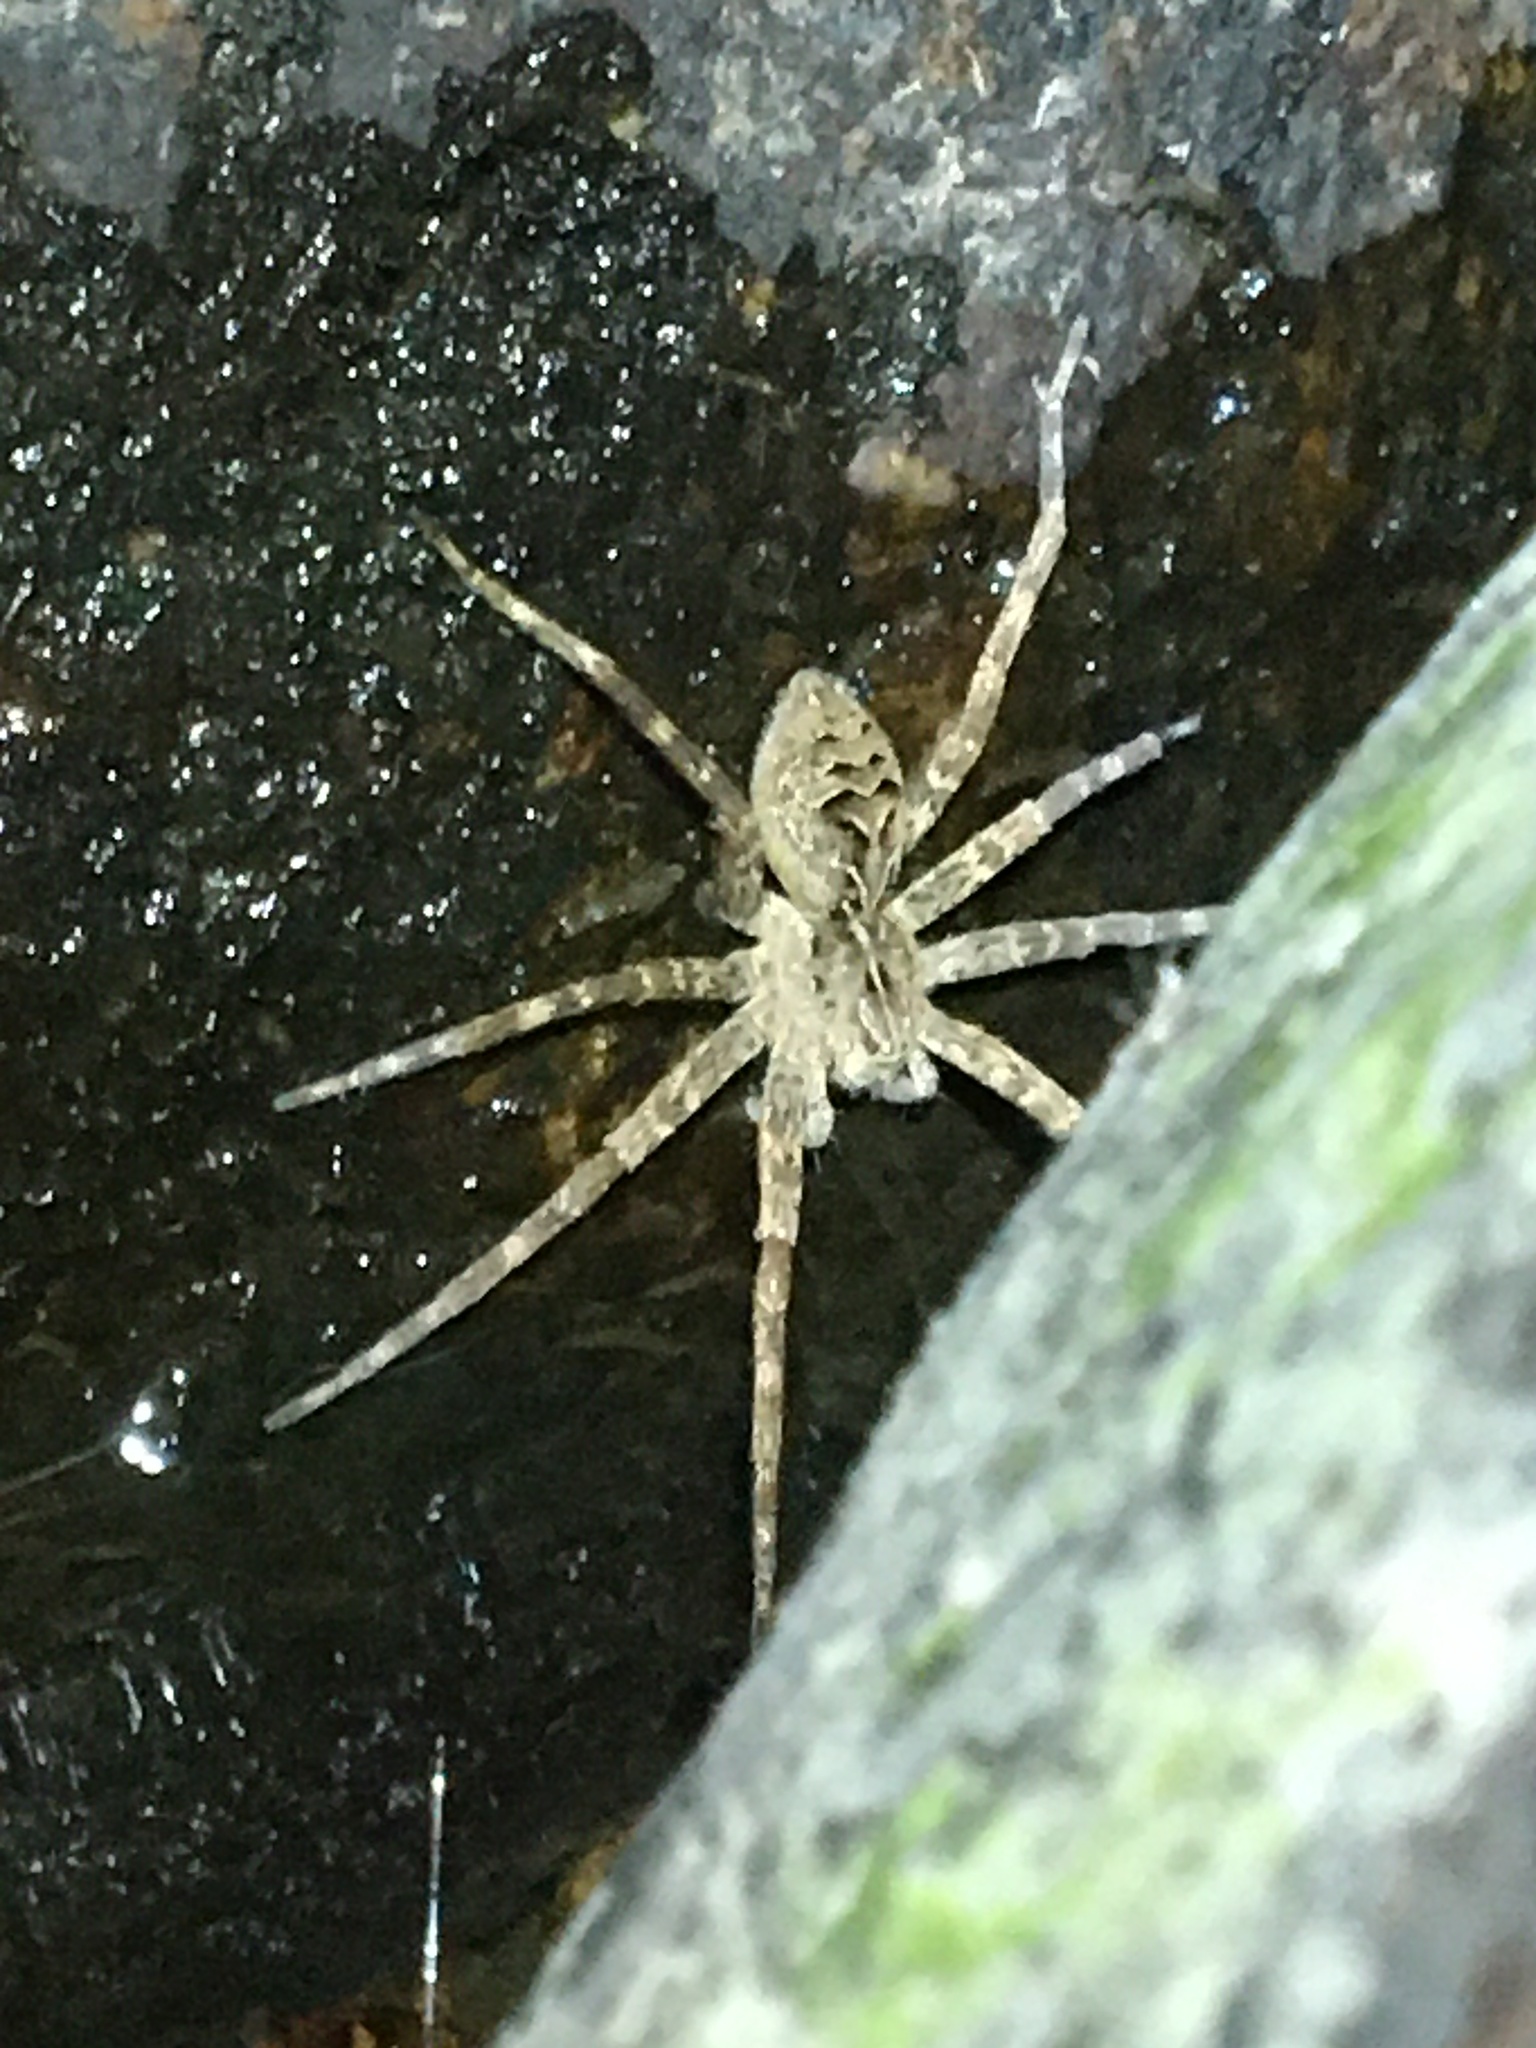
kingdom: Animalia
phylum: Arthropoda
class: Arachnida
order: Araneae
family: Pisauridae
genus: Dolomedes
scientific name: Dolomedes scriptus
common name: Striped fishing spider
